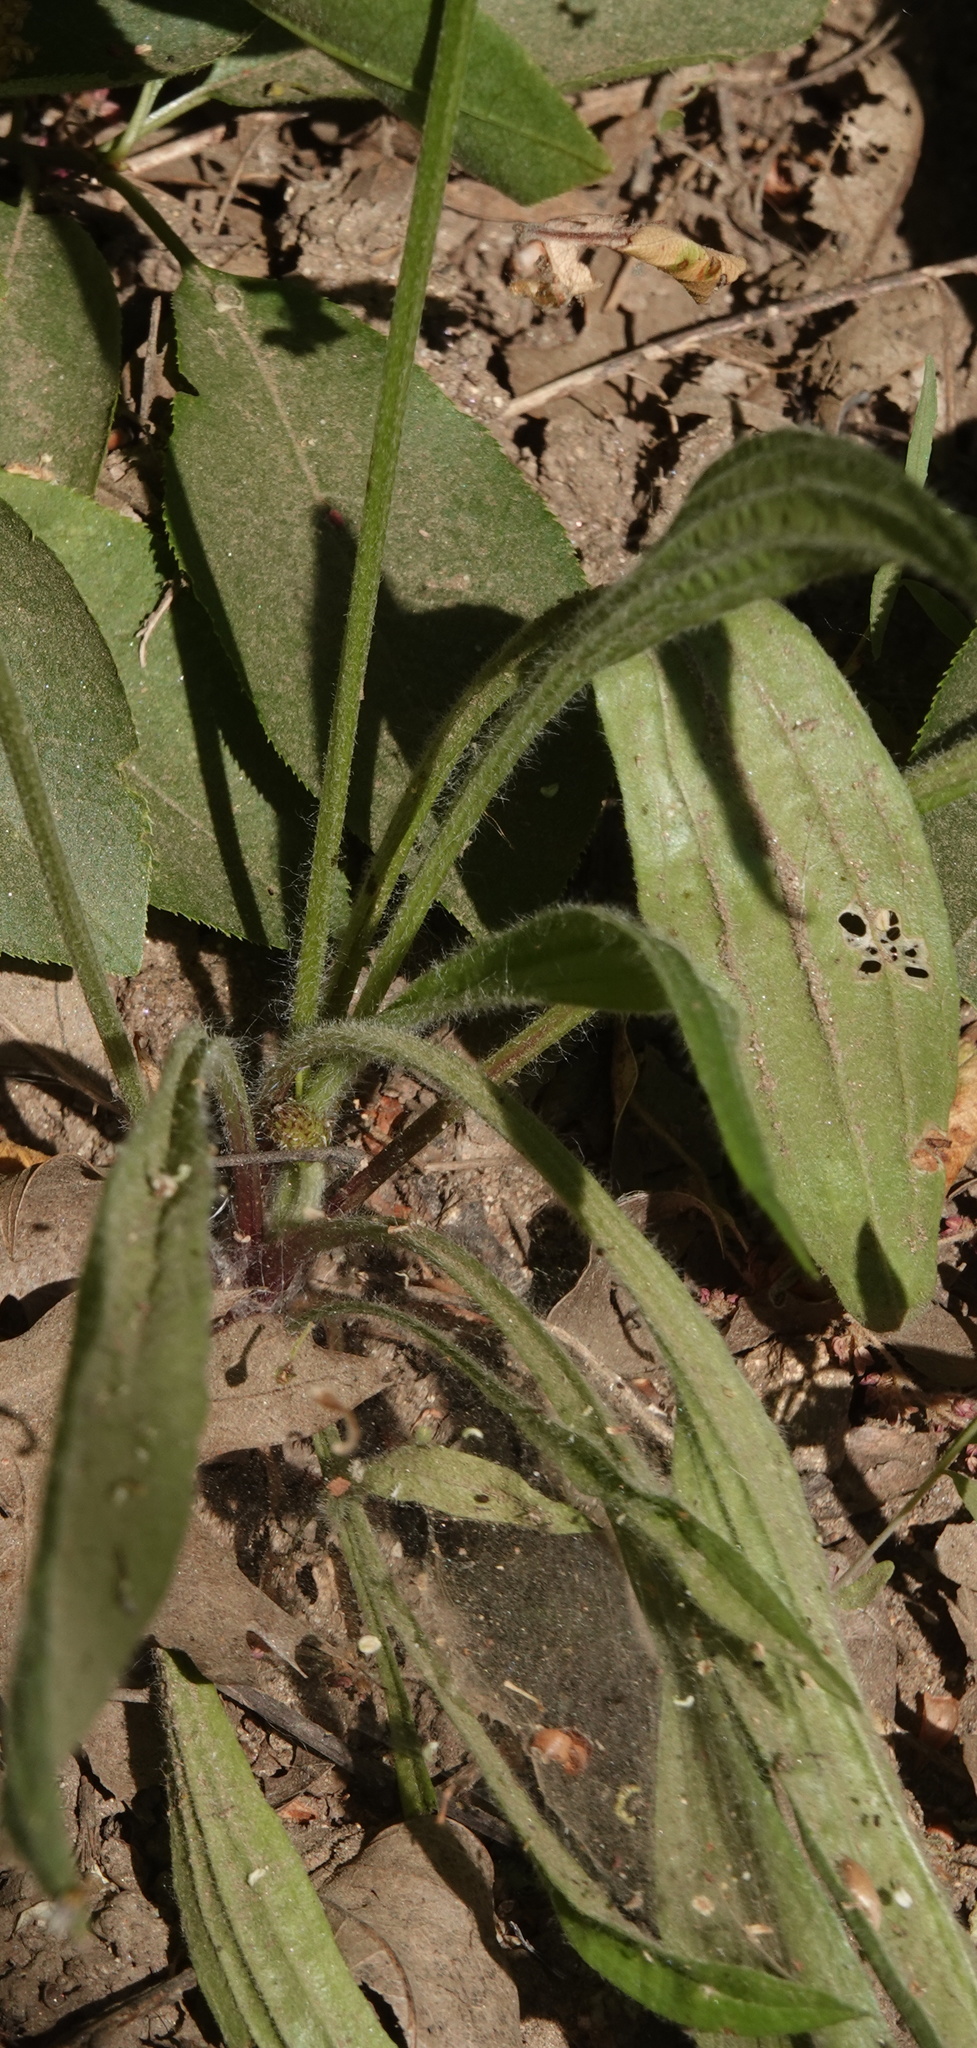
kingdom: Plantae
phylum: Tracheophyta
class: Magnoliopsida
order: Lamiales
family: Plantaginaceae
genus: Plantago
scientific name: Plantago lanceolata
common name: Ribwort plantain
